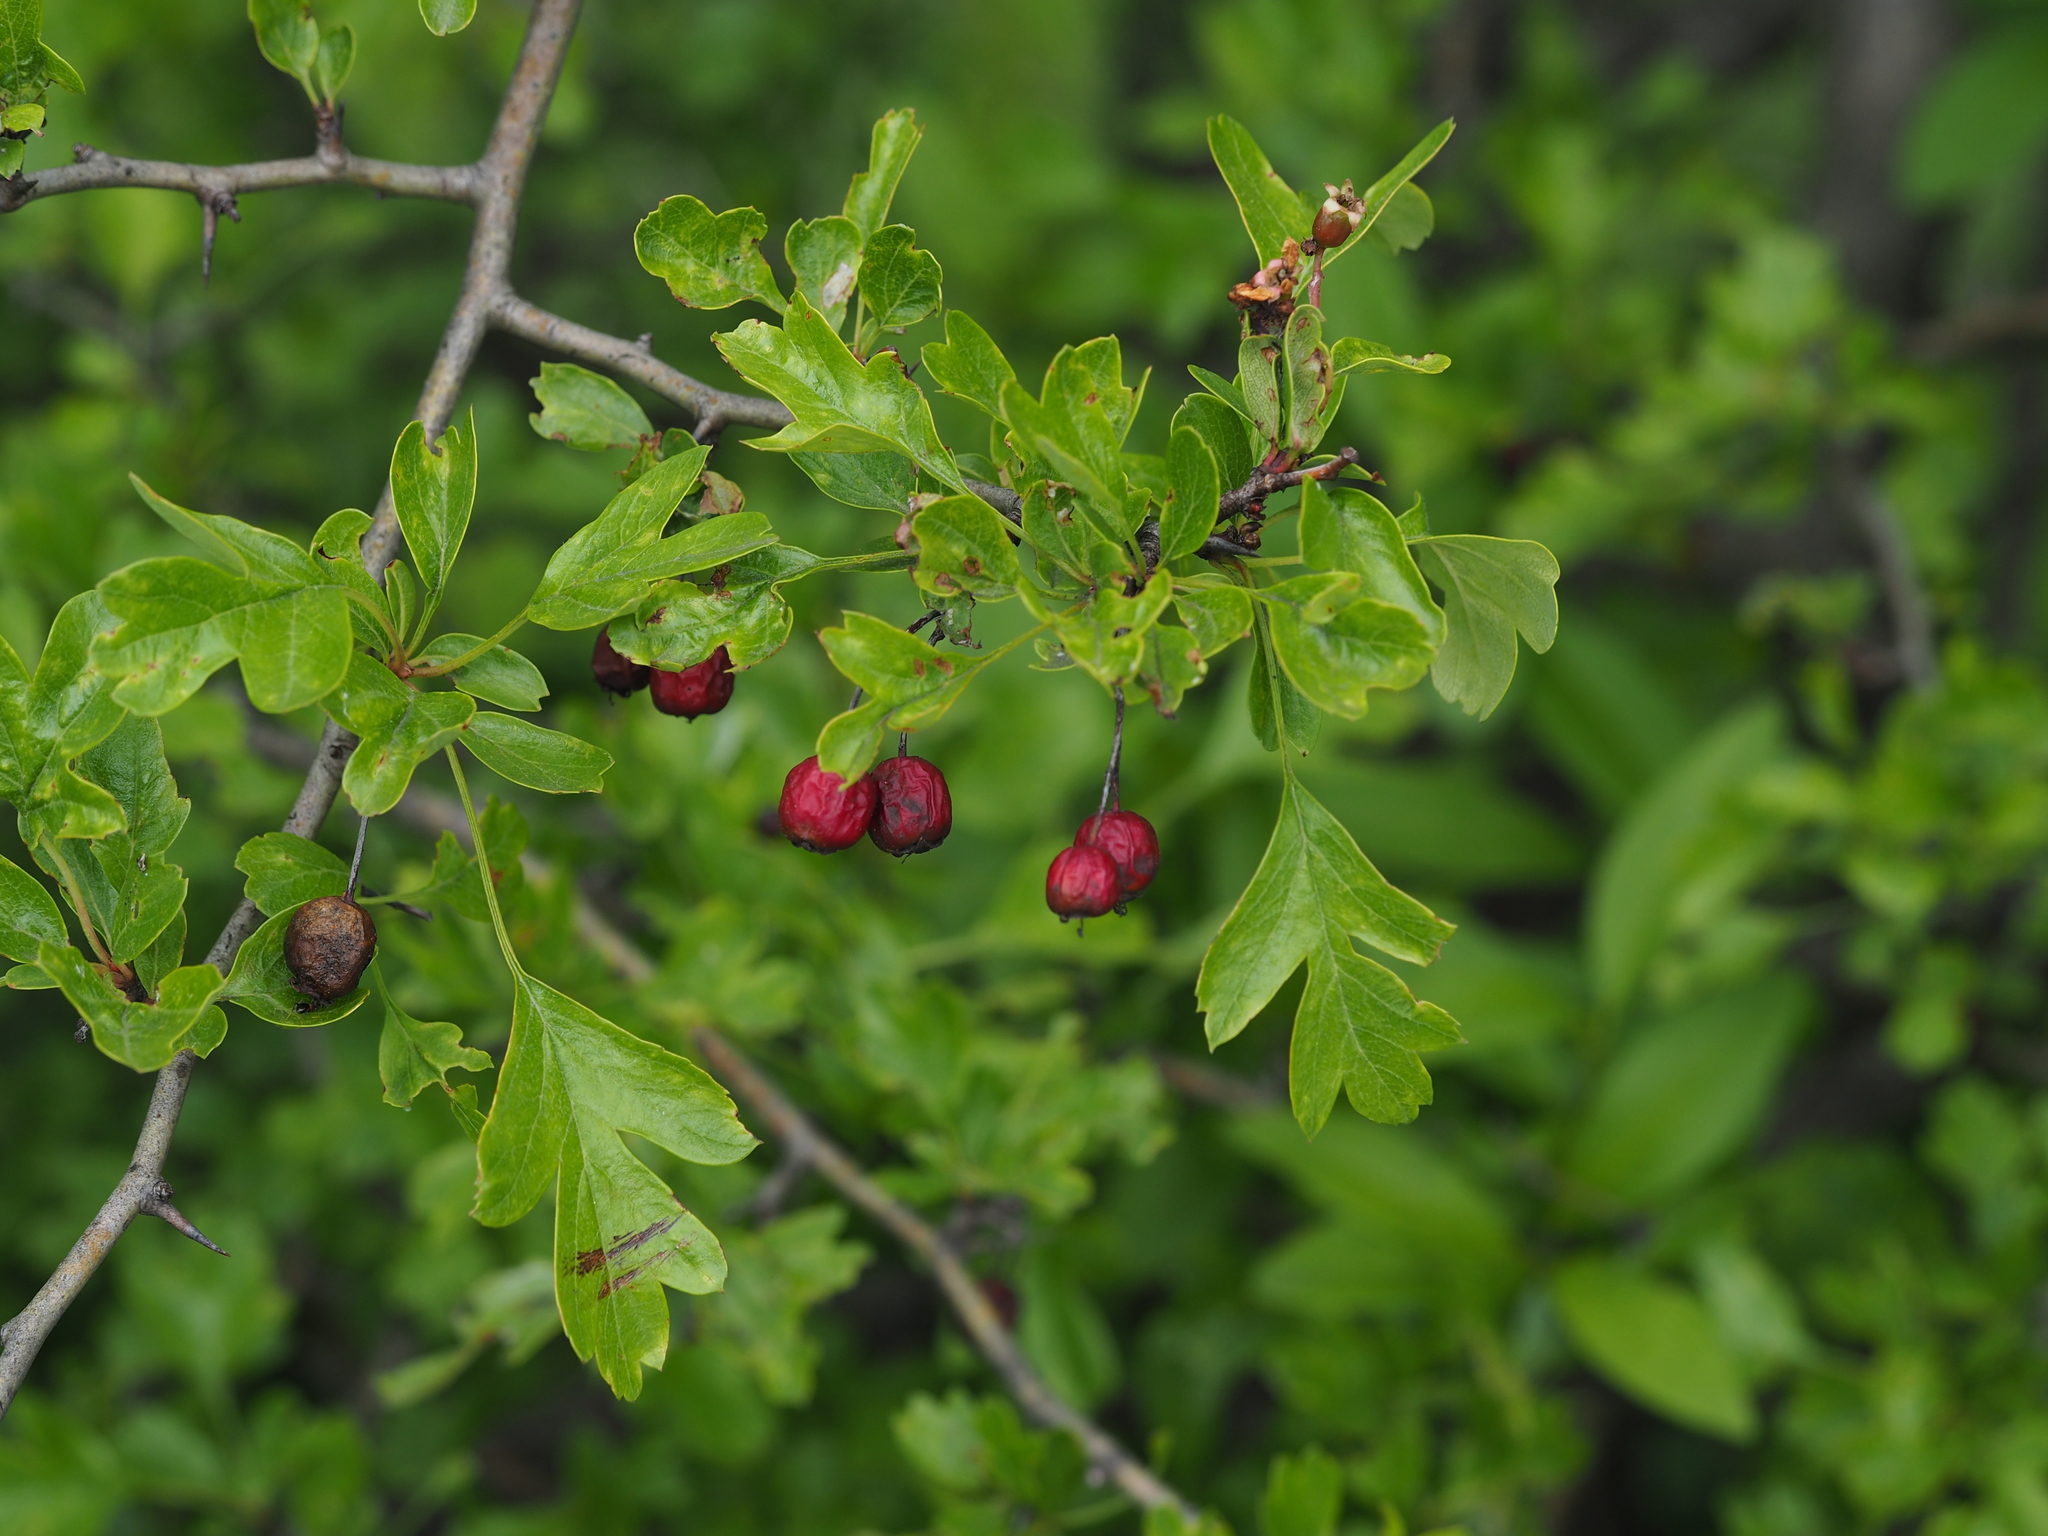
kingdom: Plantae
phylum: Tracheophyta
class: Magnoliopsida
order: Rosales
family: Rosaceae
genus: Crataegus
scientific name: Crataegus monogyna
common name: Hawthorn
